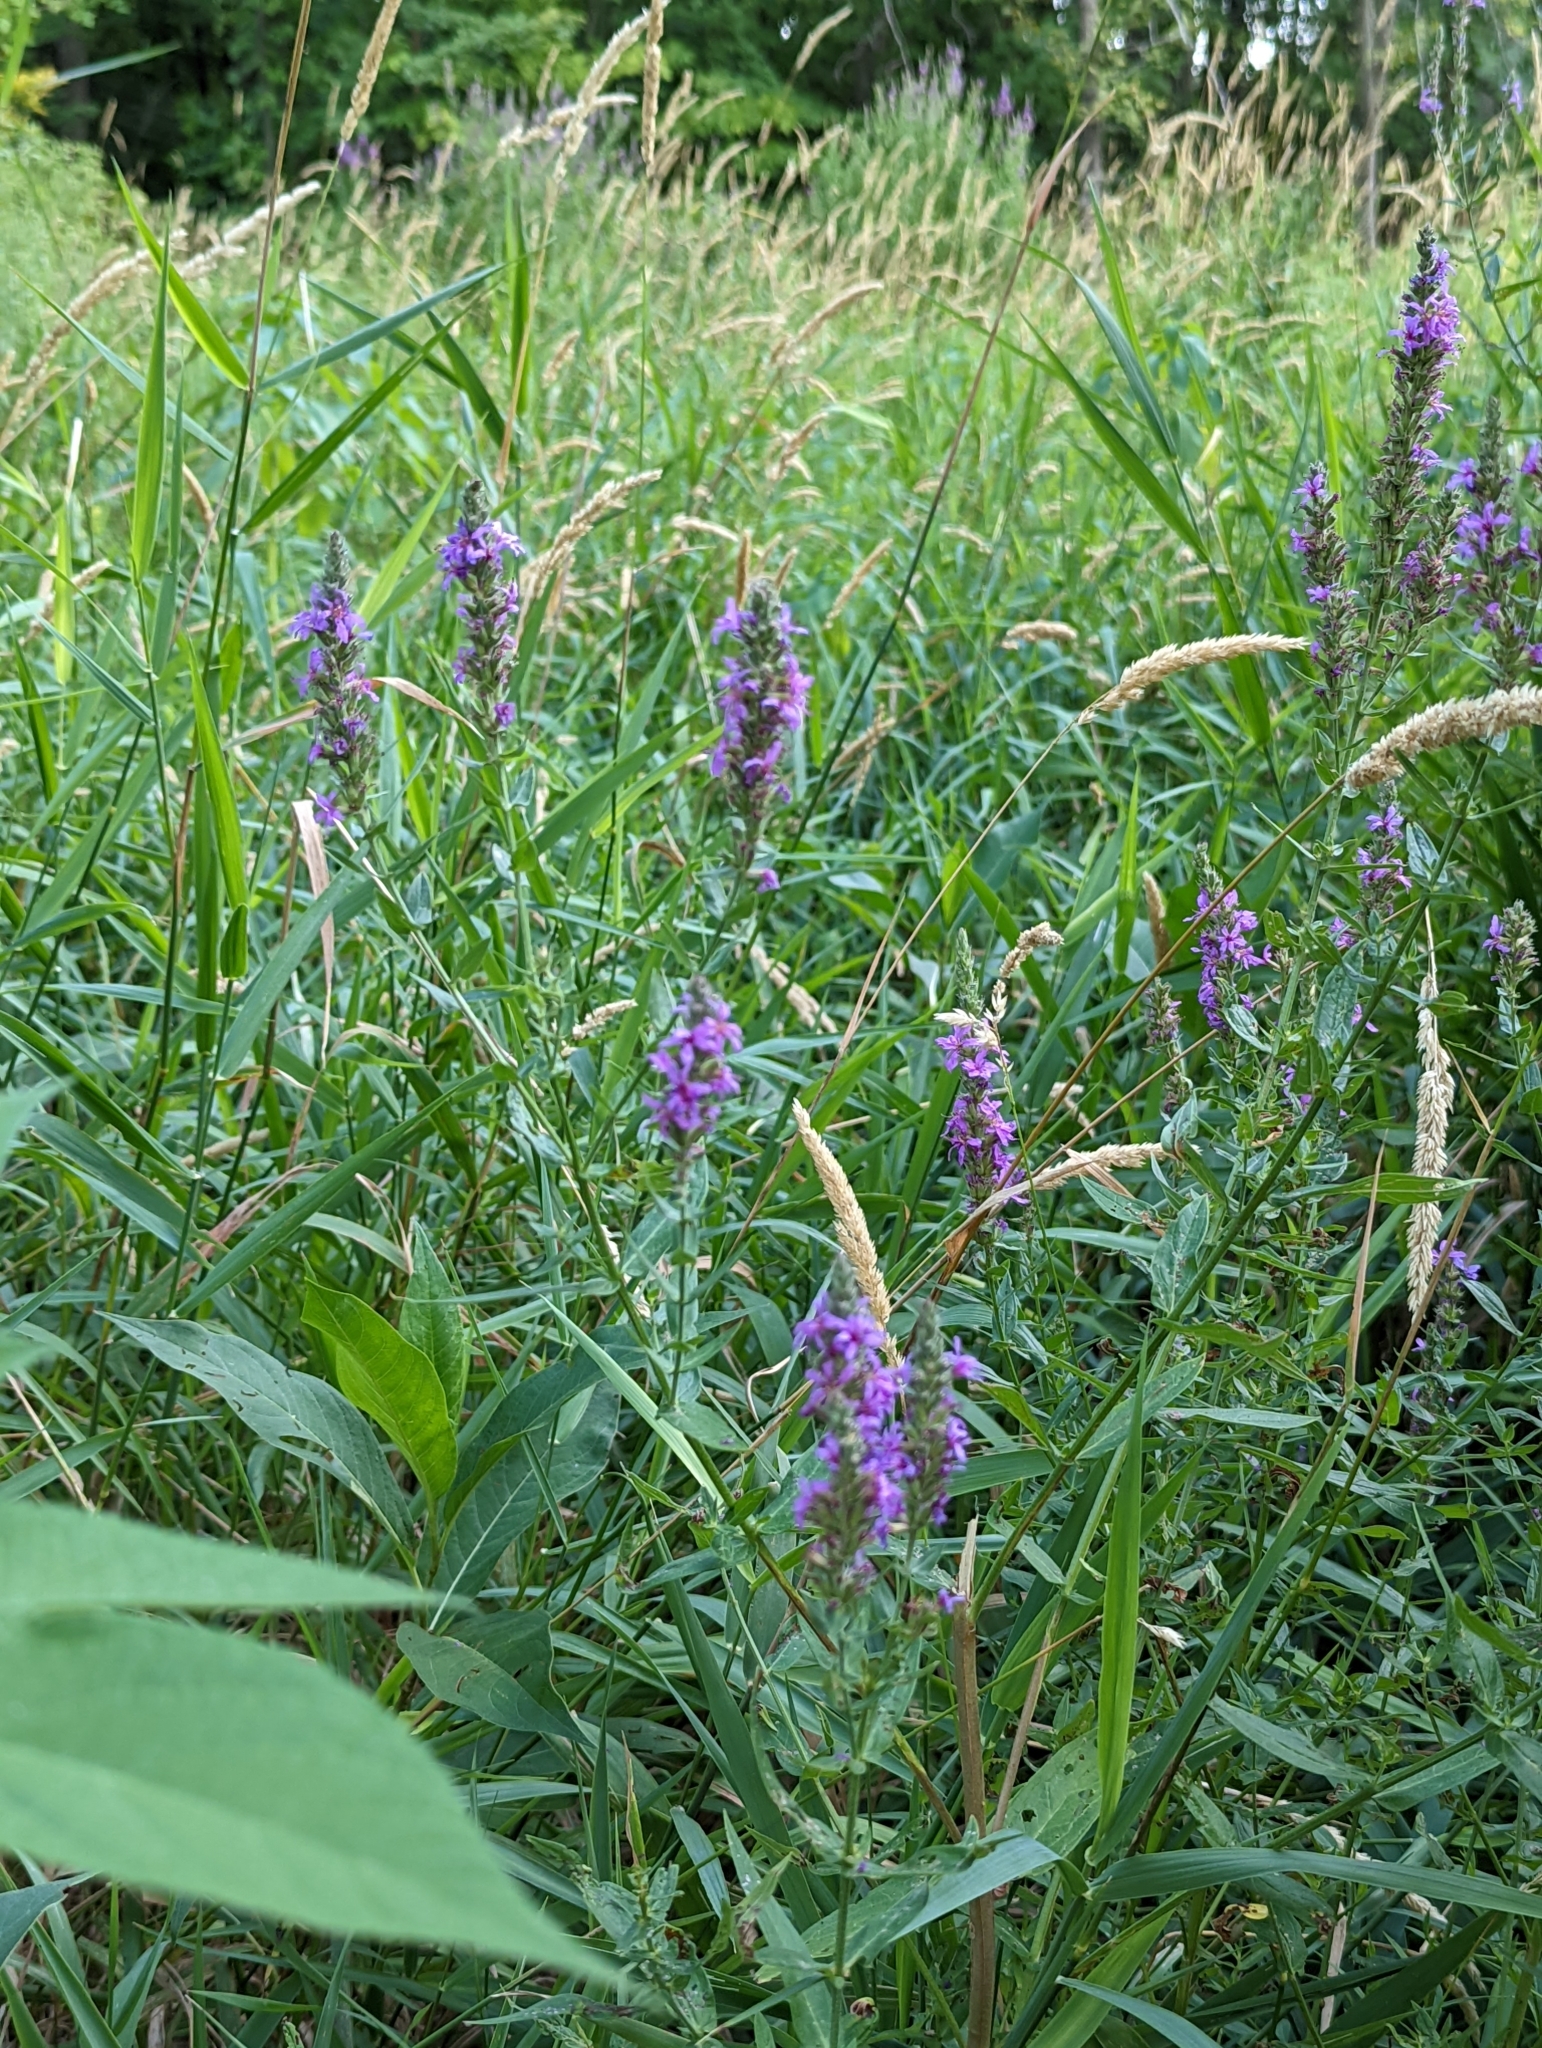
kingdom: Plantae
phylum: Tracheophyta
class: Magnoliopsida
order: Myrtales
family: Lythraceae
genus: Lythrum
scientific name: Lythrum salicaria
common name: Purple loosestrife
